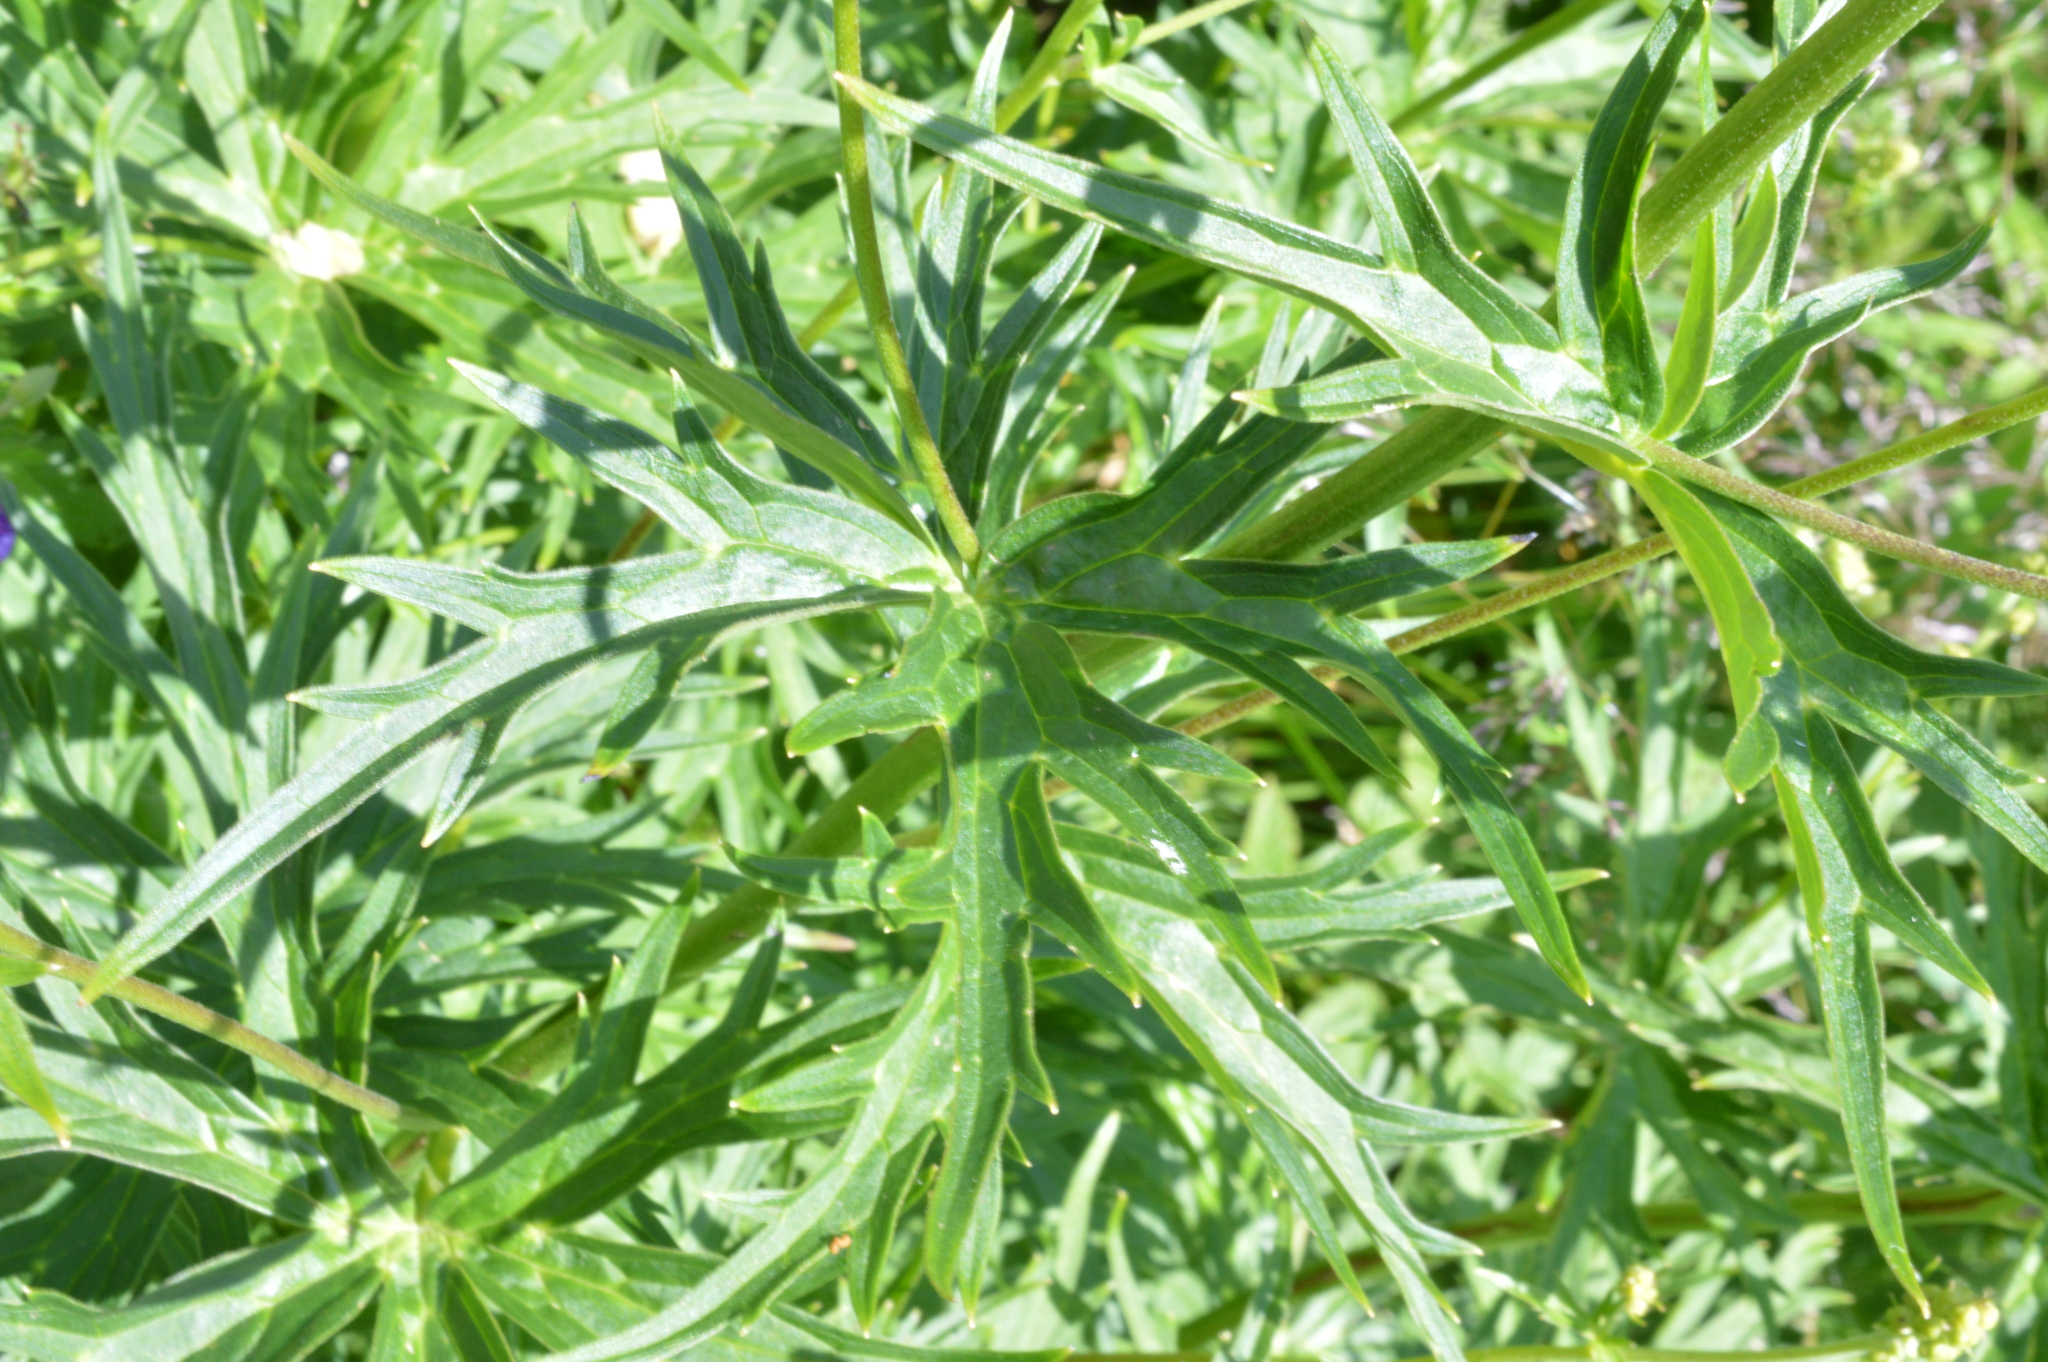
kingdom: Plantae
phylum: Tracheophyta
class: Magnoliopsida
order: Ranunculales
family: Ranunculaceae
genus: Aconitum
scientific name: Aconitum lycoctonum
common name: Wolf's-bane
